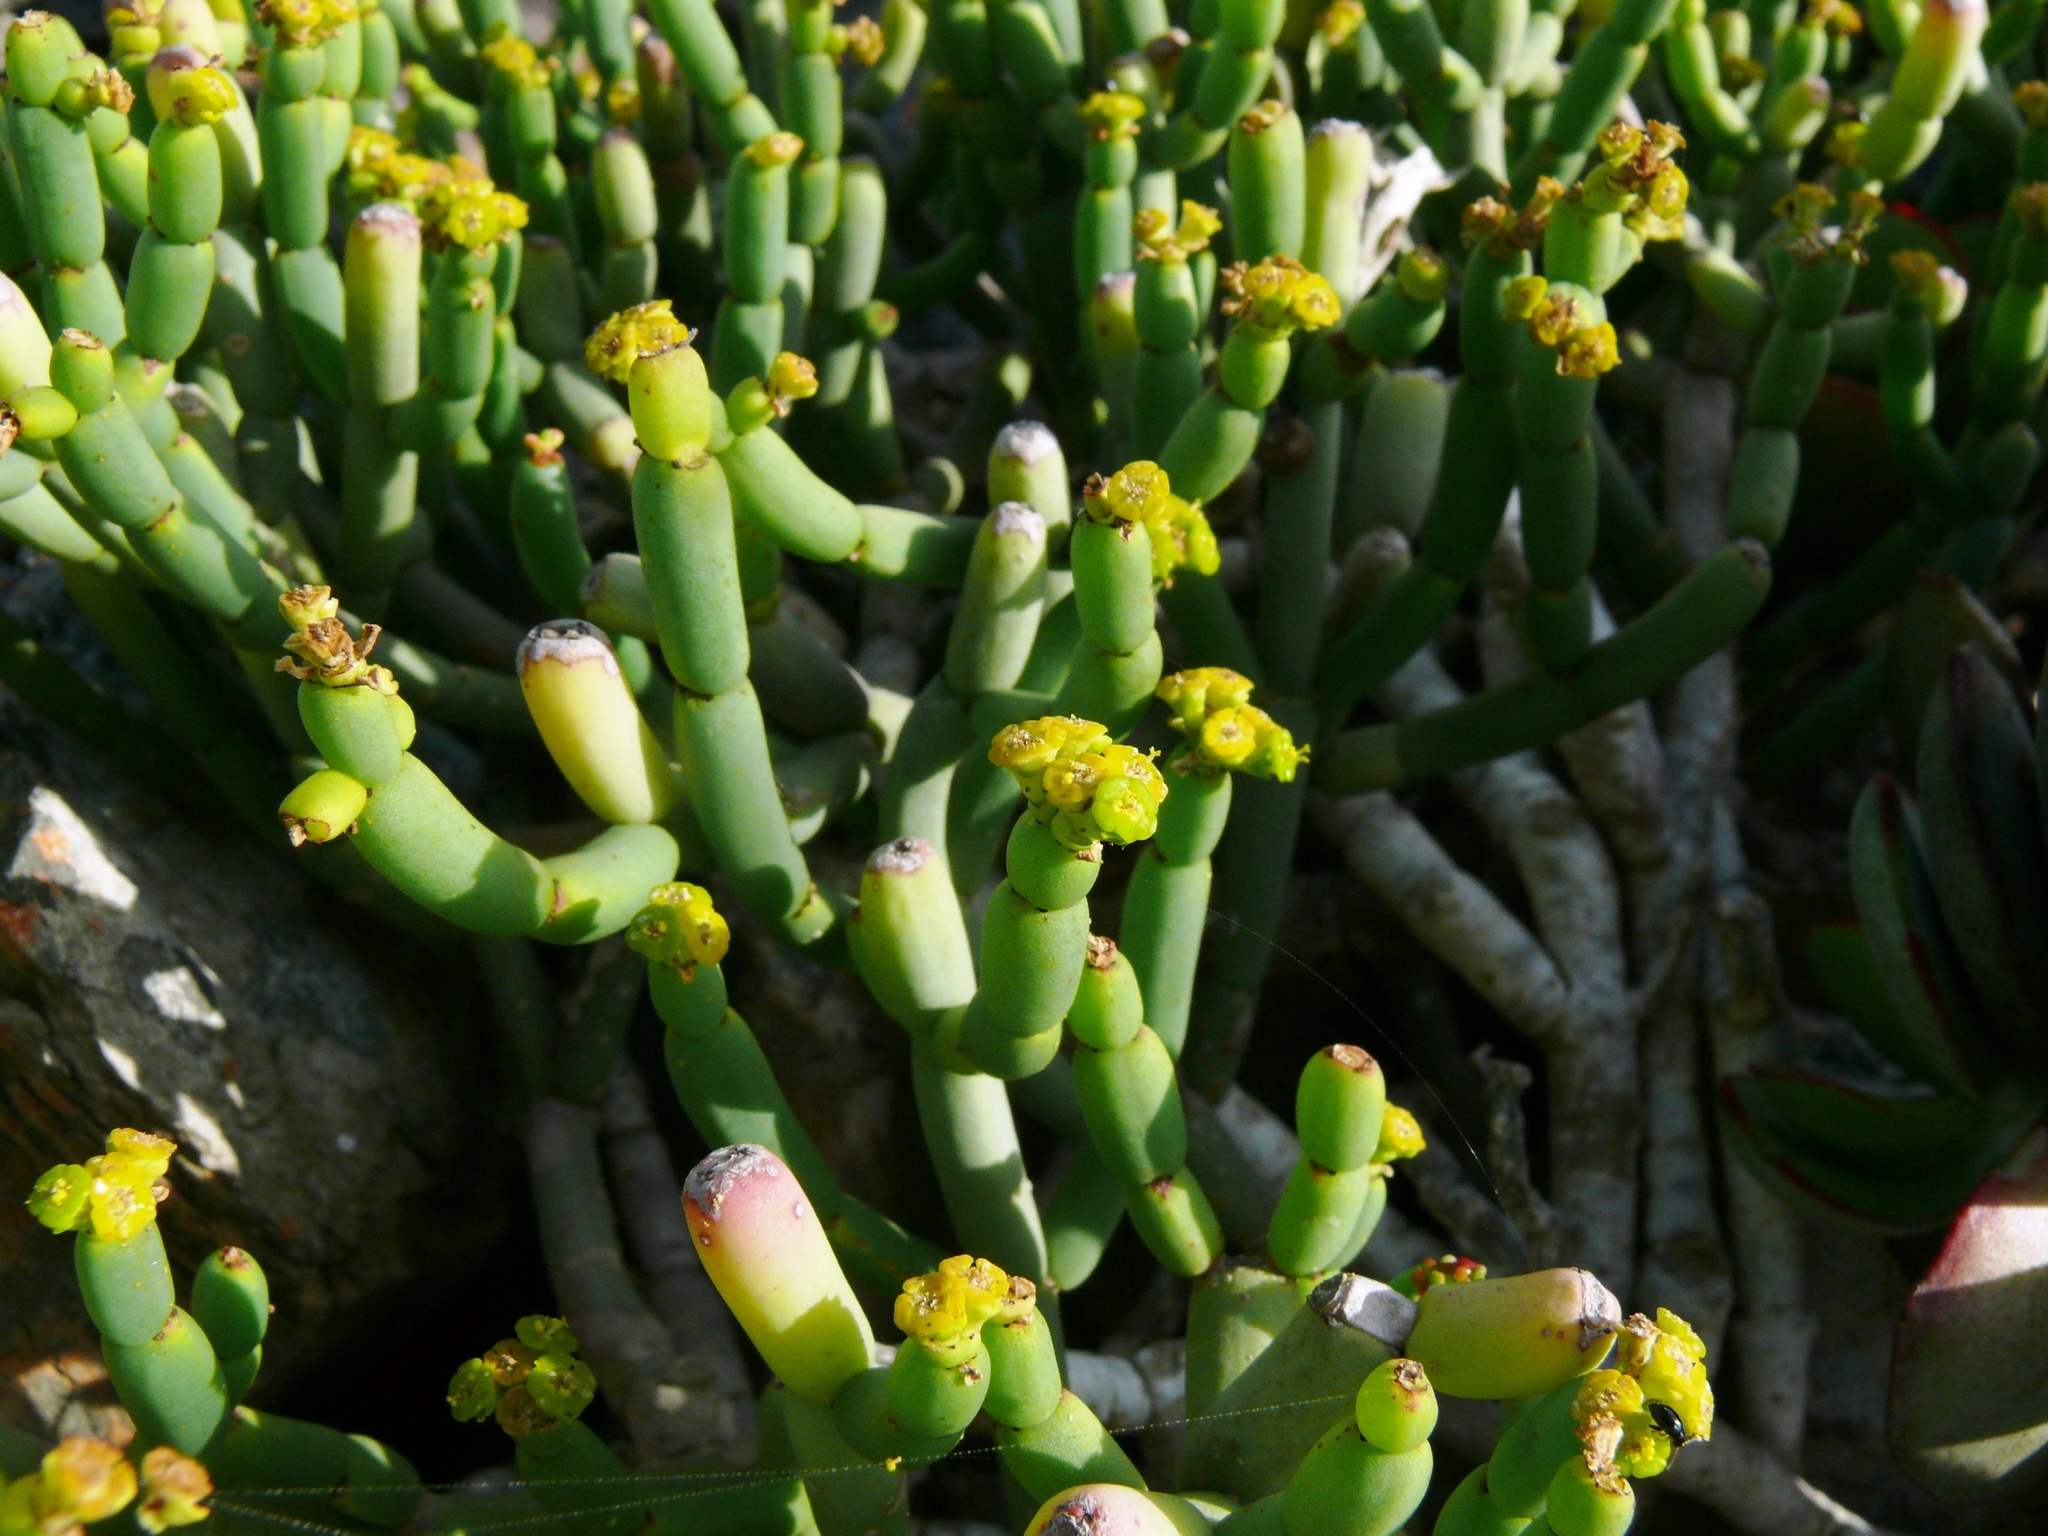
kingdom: Plantae
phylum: Tracheophyta
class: Magnoliopsida
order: Malpighiales
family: Euphorbiaceae
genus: Euphorbia
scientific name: Euphorbia burmanni
